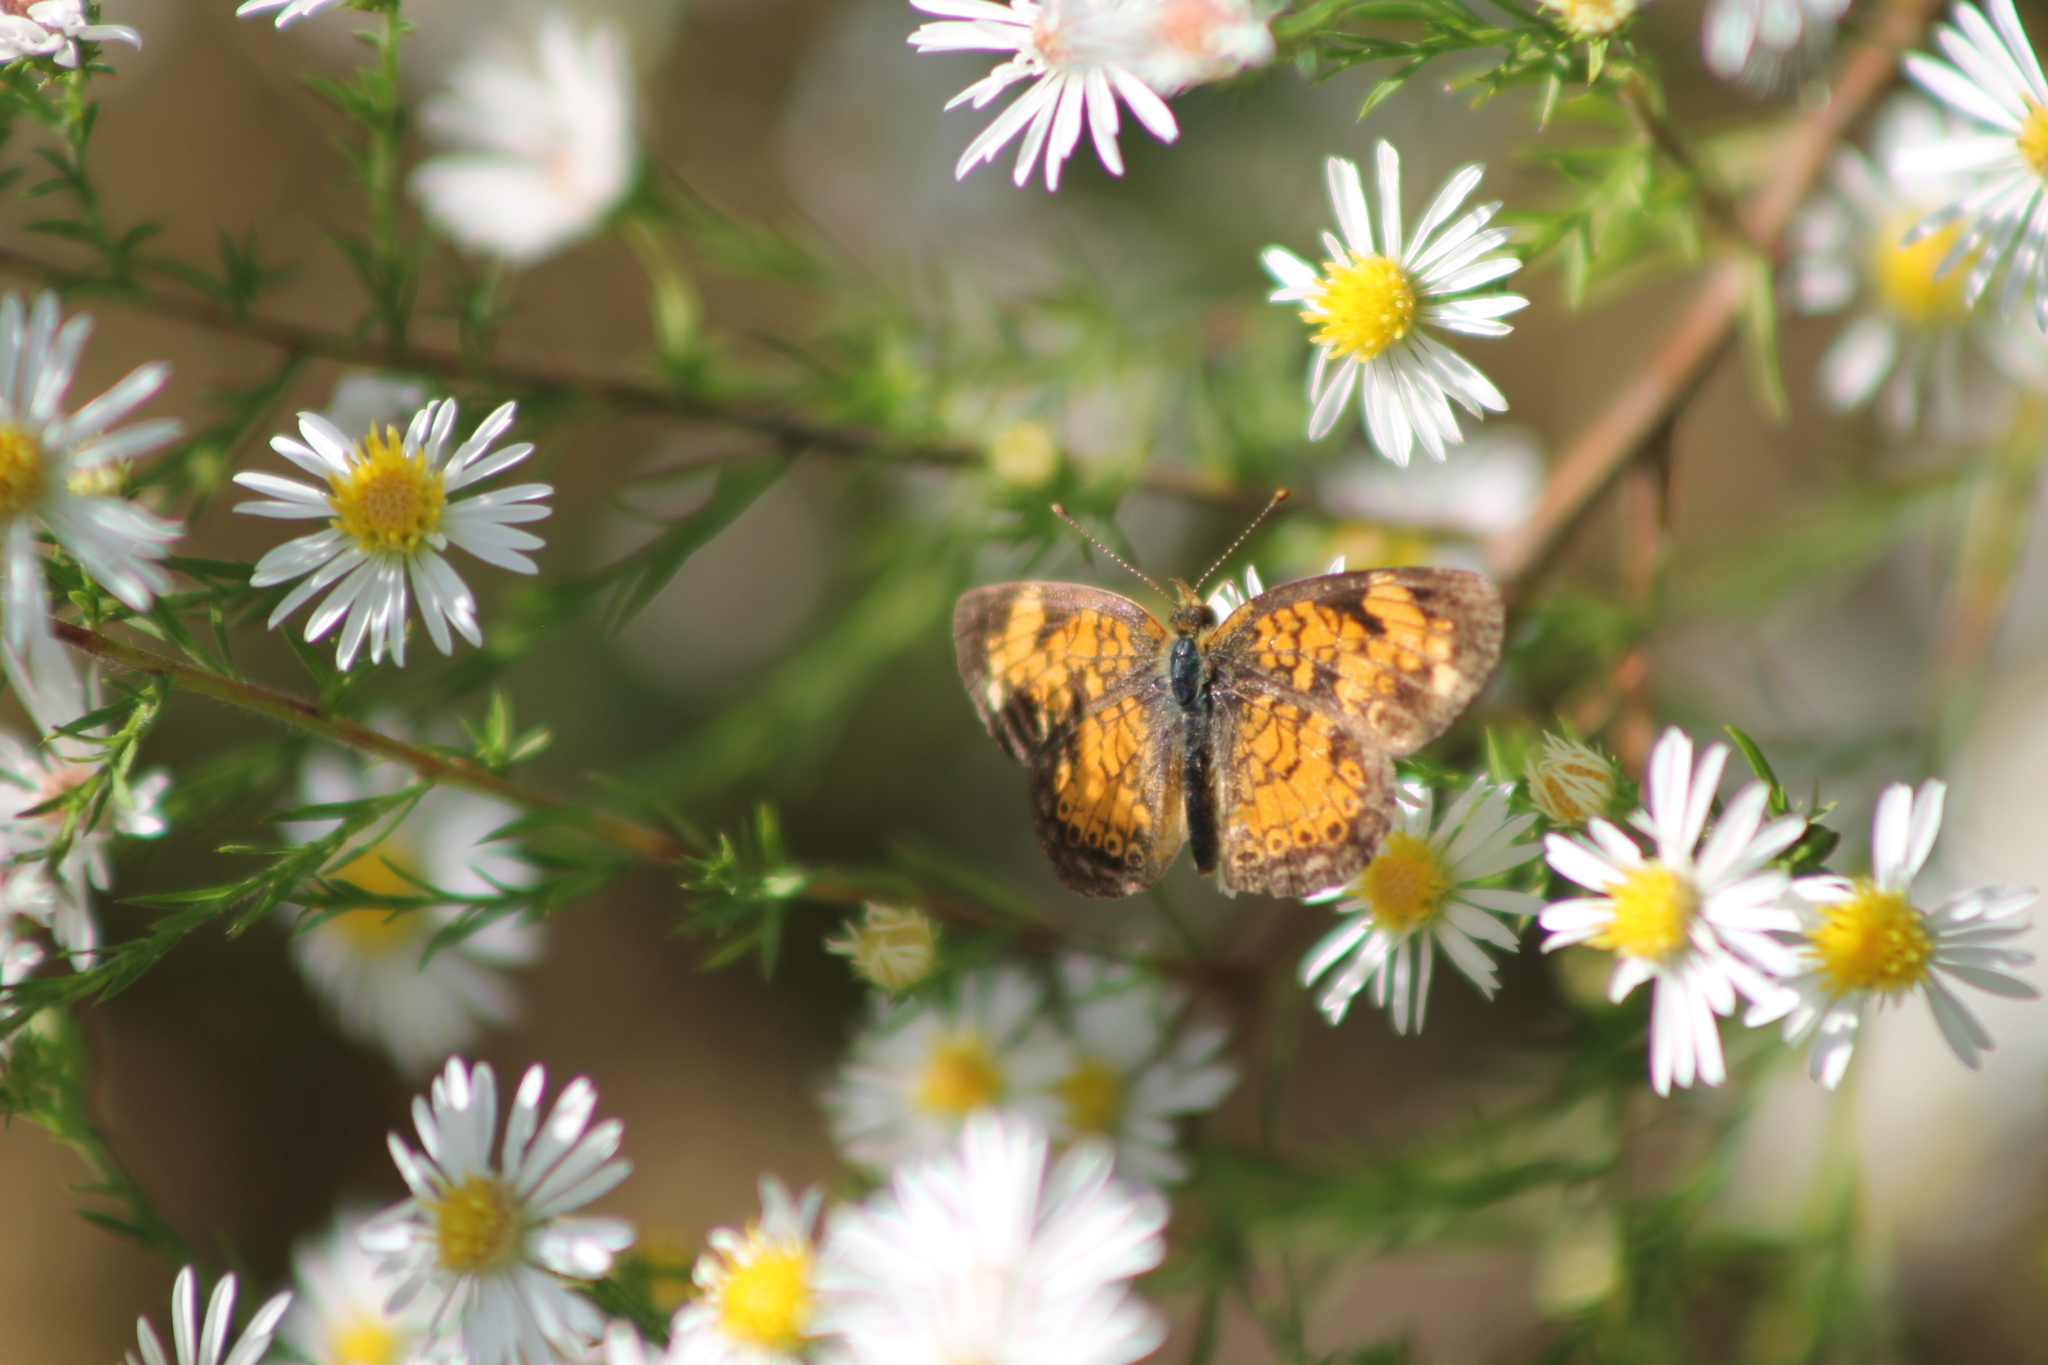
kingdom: Animalia
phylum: Arthropoda
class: Insecta
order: Lepidoptera
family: Nymphalidae
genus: Phyciodes
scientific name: Phyciodes tharos
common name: Pearl crescent
